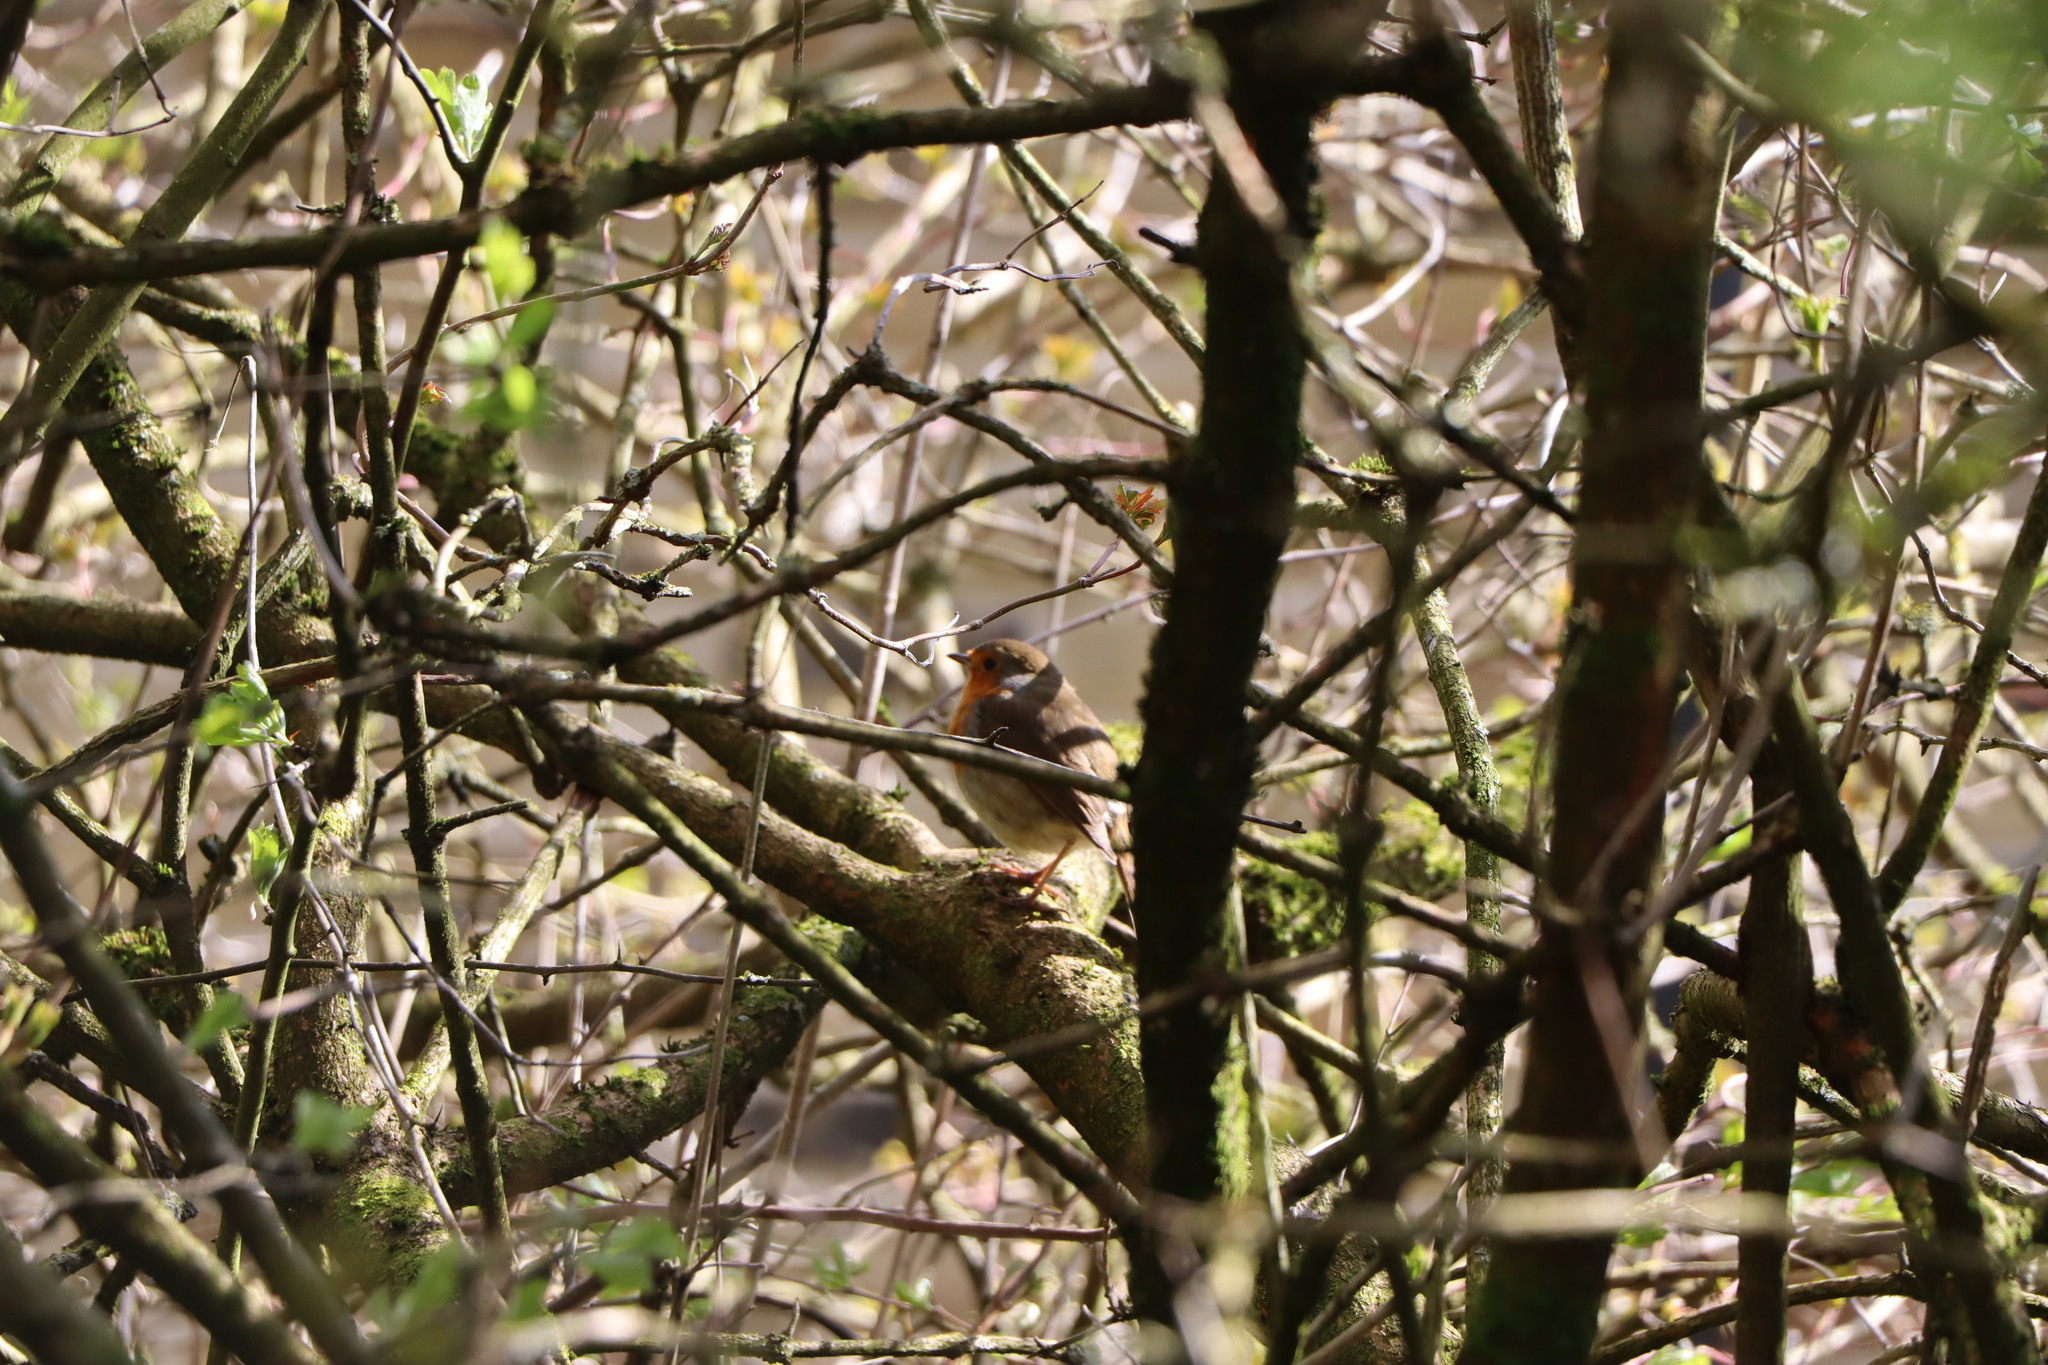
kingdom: Animalia
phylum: Chordata
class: Aves
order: Passeriformes
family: Muscicapidae
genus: Erithacus
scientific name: Erithacus rubecula
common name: European robin
